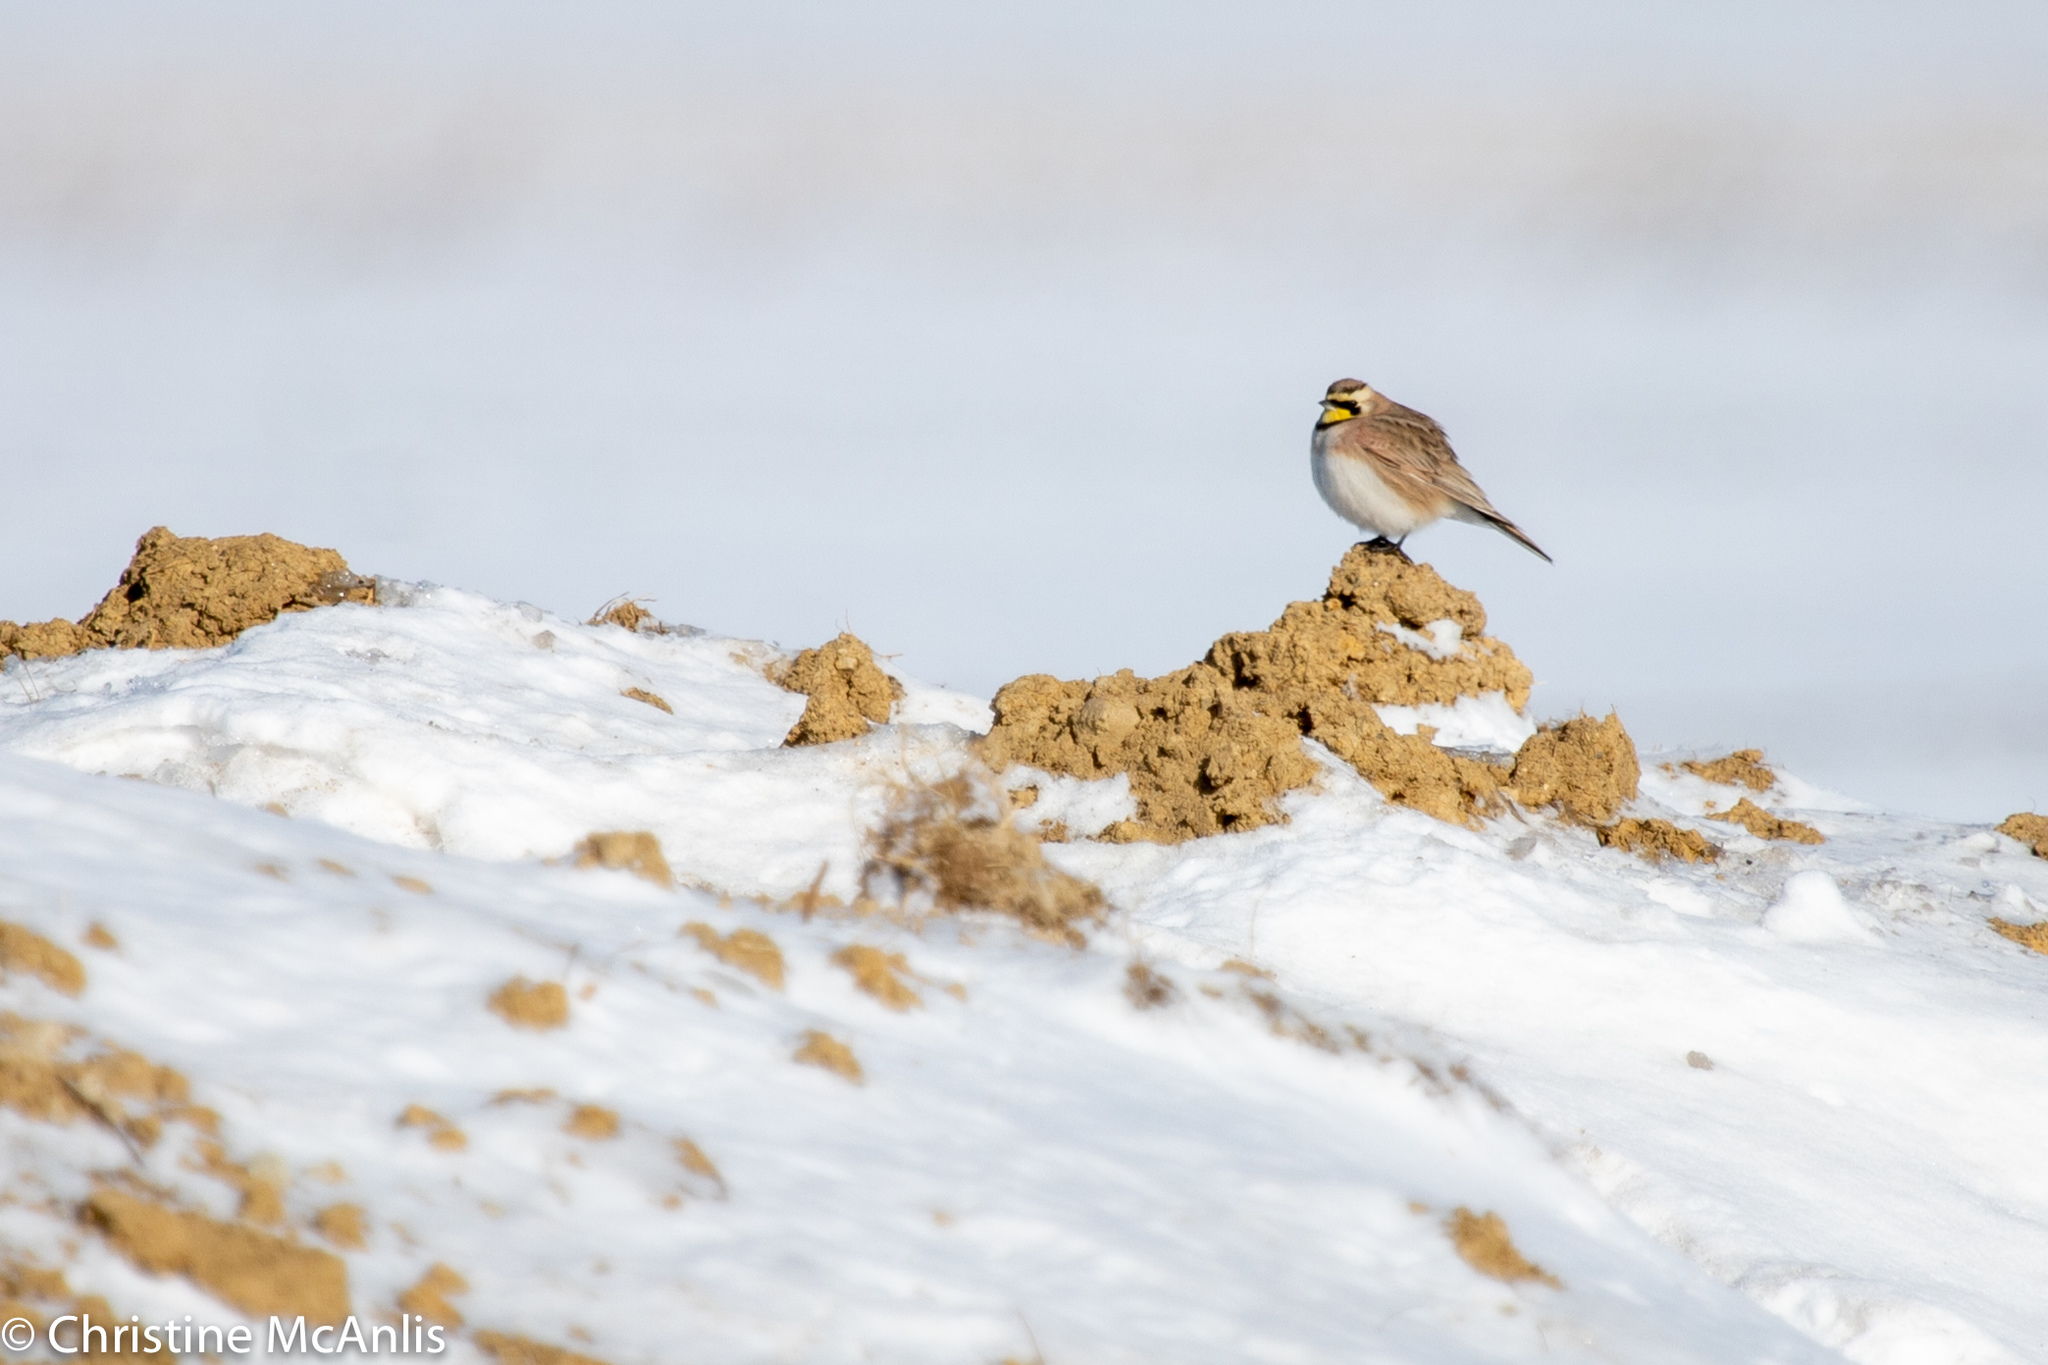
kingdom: Animalia
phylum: Chordata
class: Aves
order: Passeriformes
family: Alaudidae
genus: Eremophila
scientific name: Eremophila alpestris
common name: Horned lark
